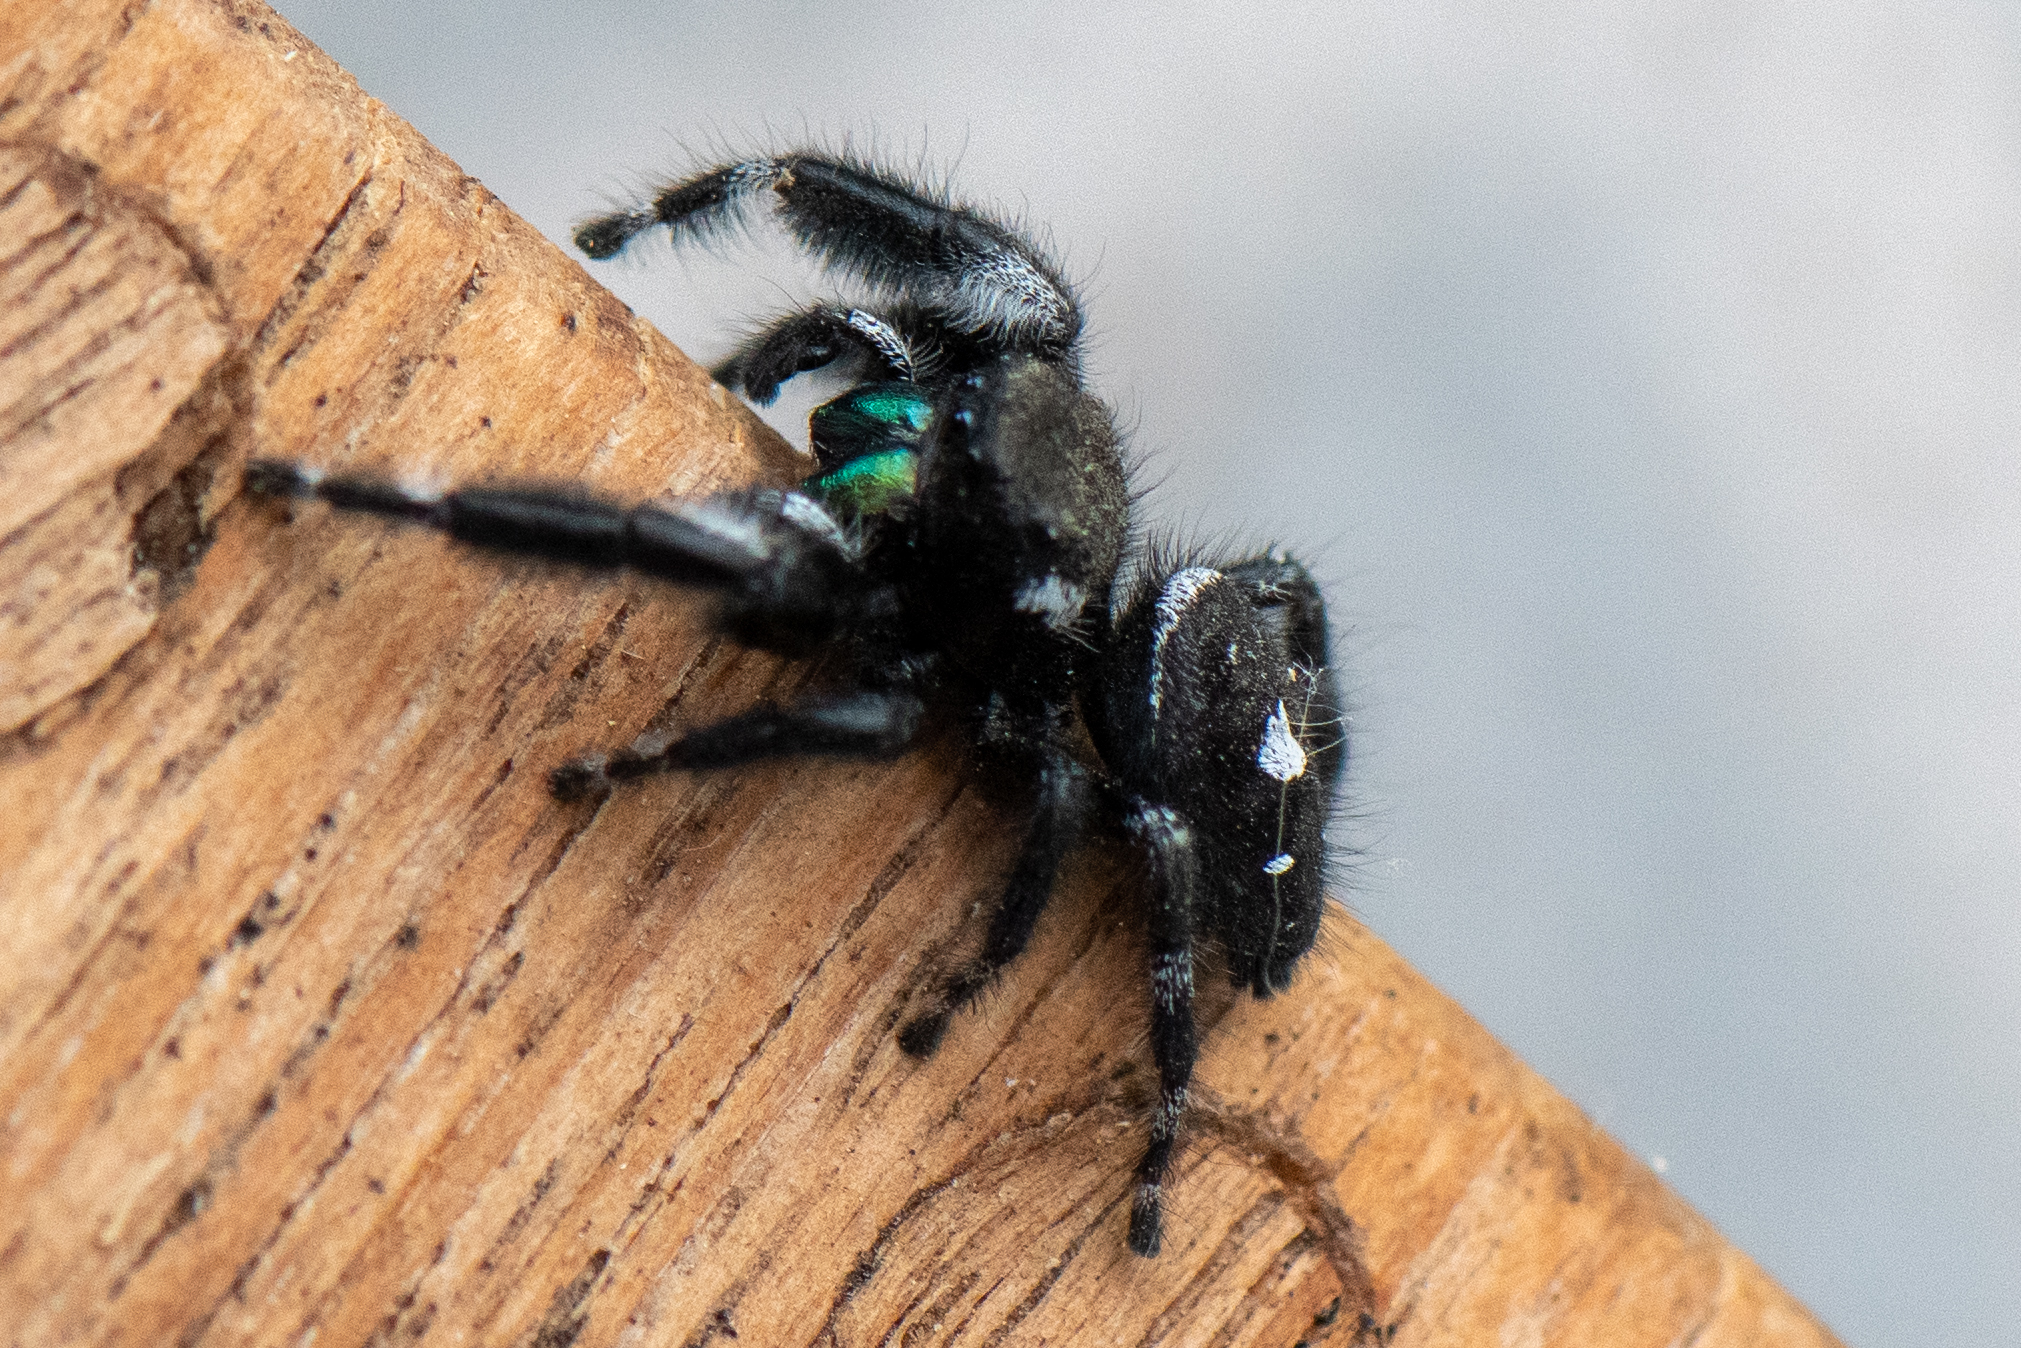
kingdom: Animalia
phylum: Arthropoda
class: Arachnida
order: Araneae
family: Salticidae
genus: Phidippus
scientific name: Phidippus audax
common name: Bold jumper
